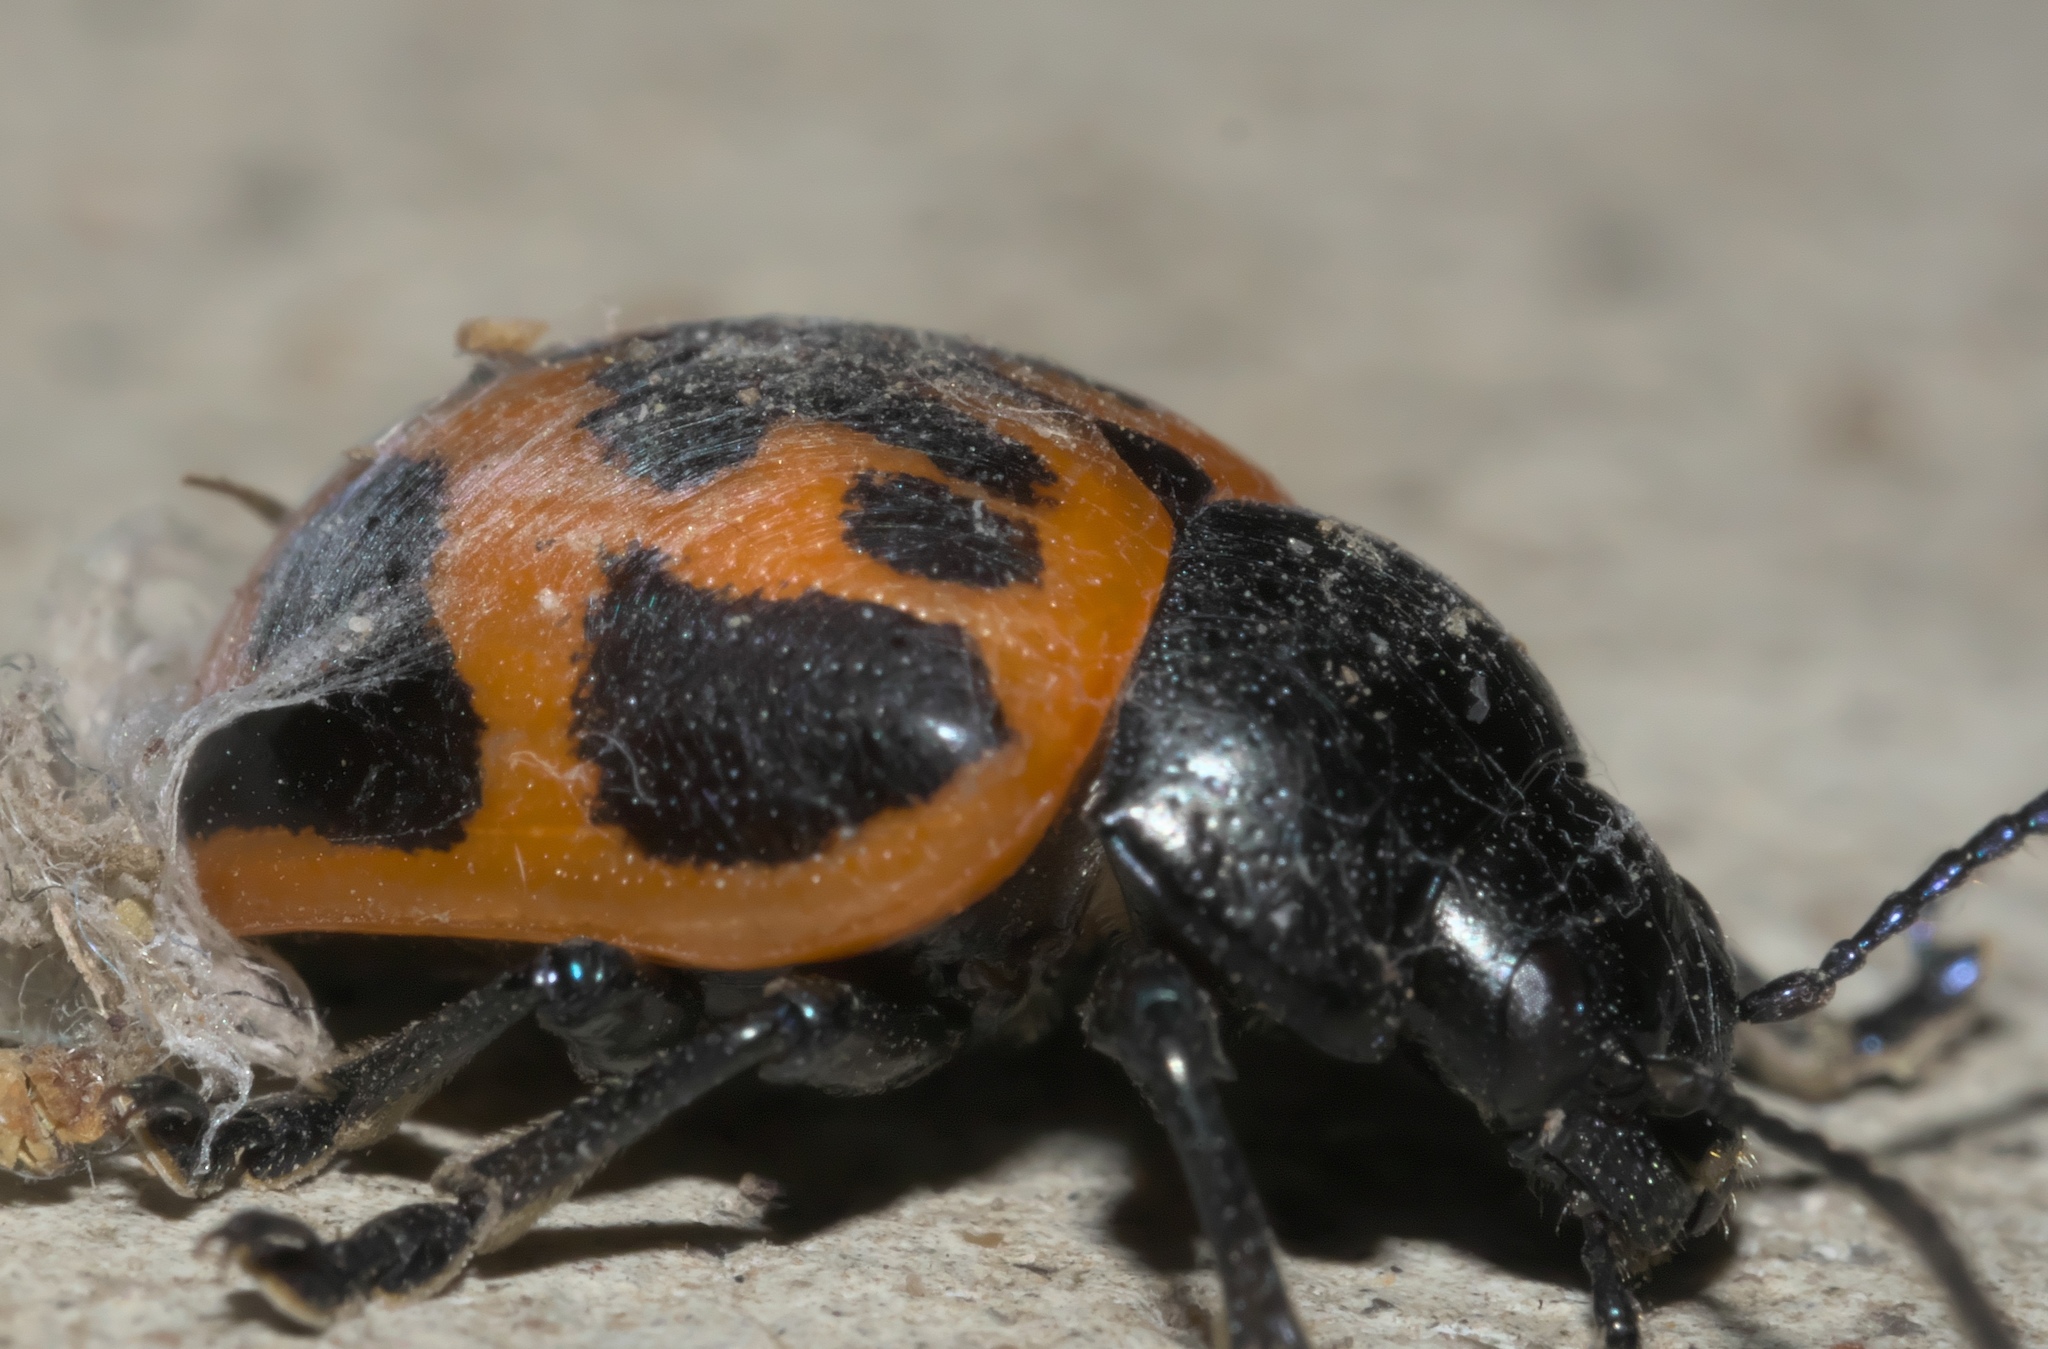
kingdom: Animalia
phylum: Arthropoda
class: Insecta
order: Coleoptera
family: Chrysomelidae
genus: Labidomera
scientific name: Labidomera clivicollis
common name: Swamp milkweed leaf beetle
